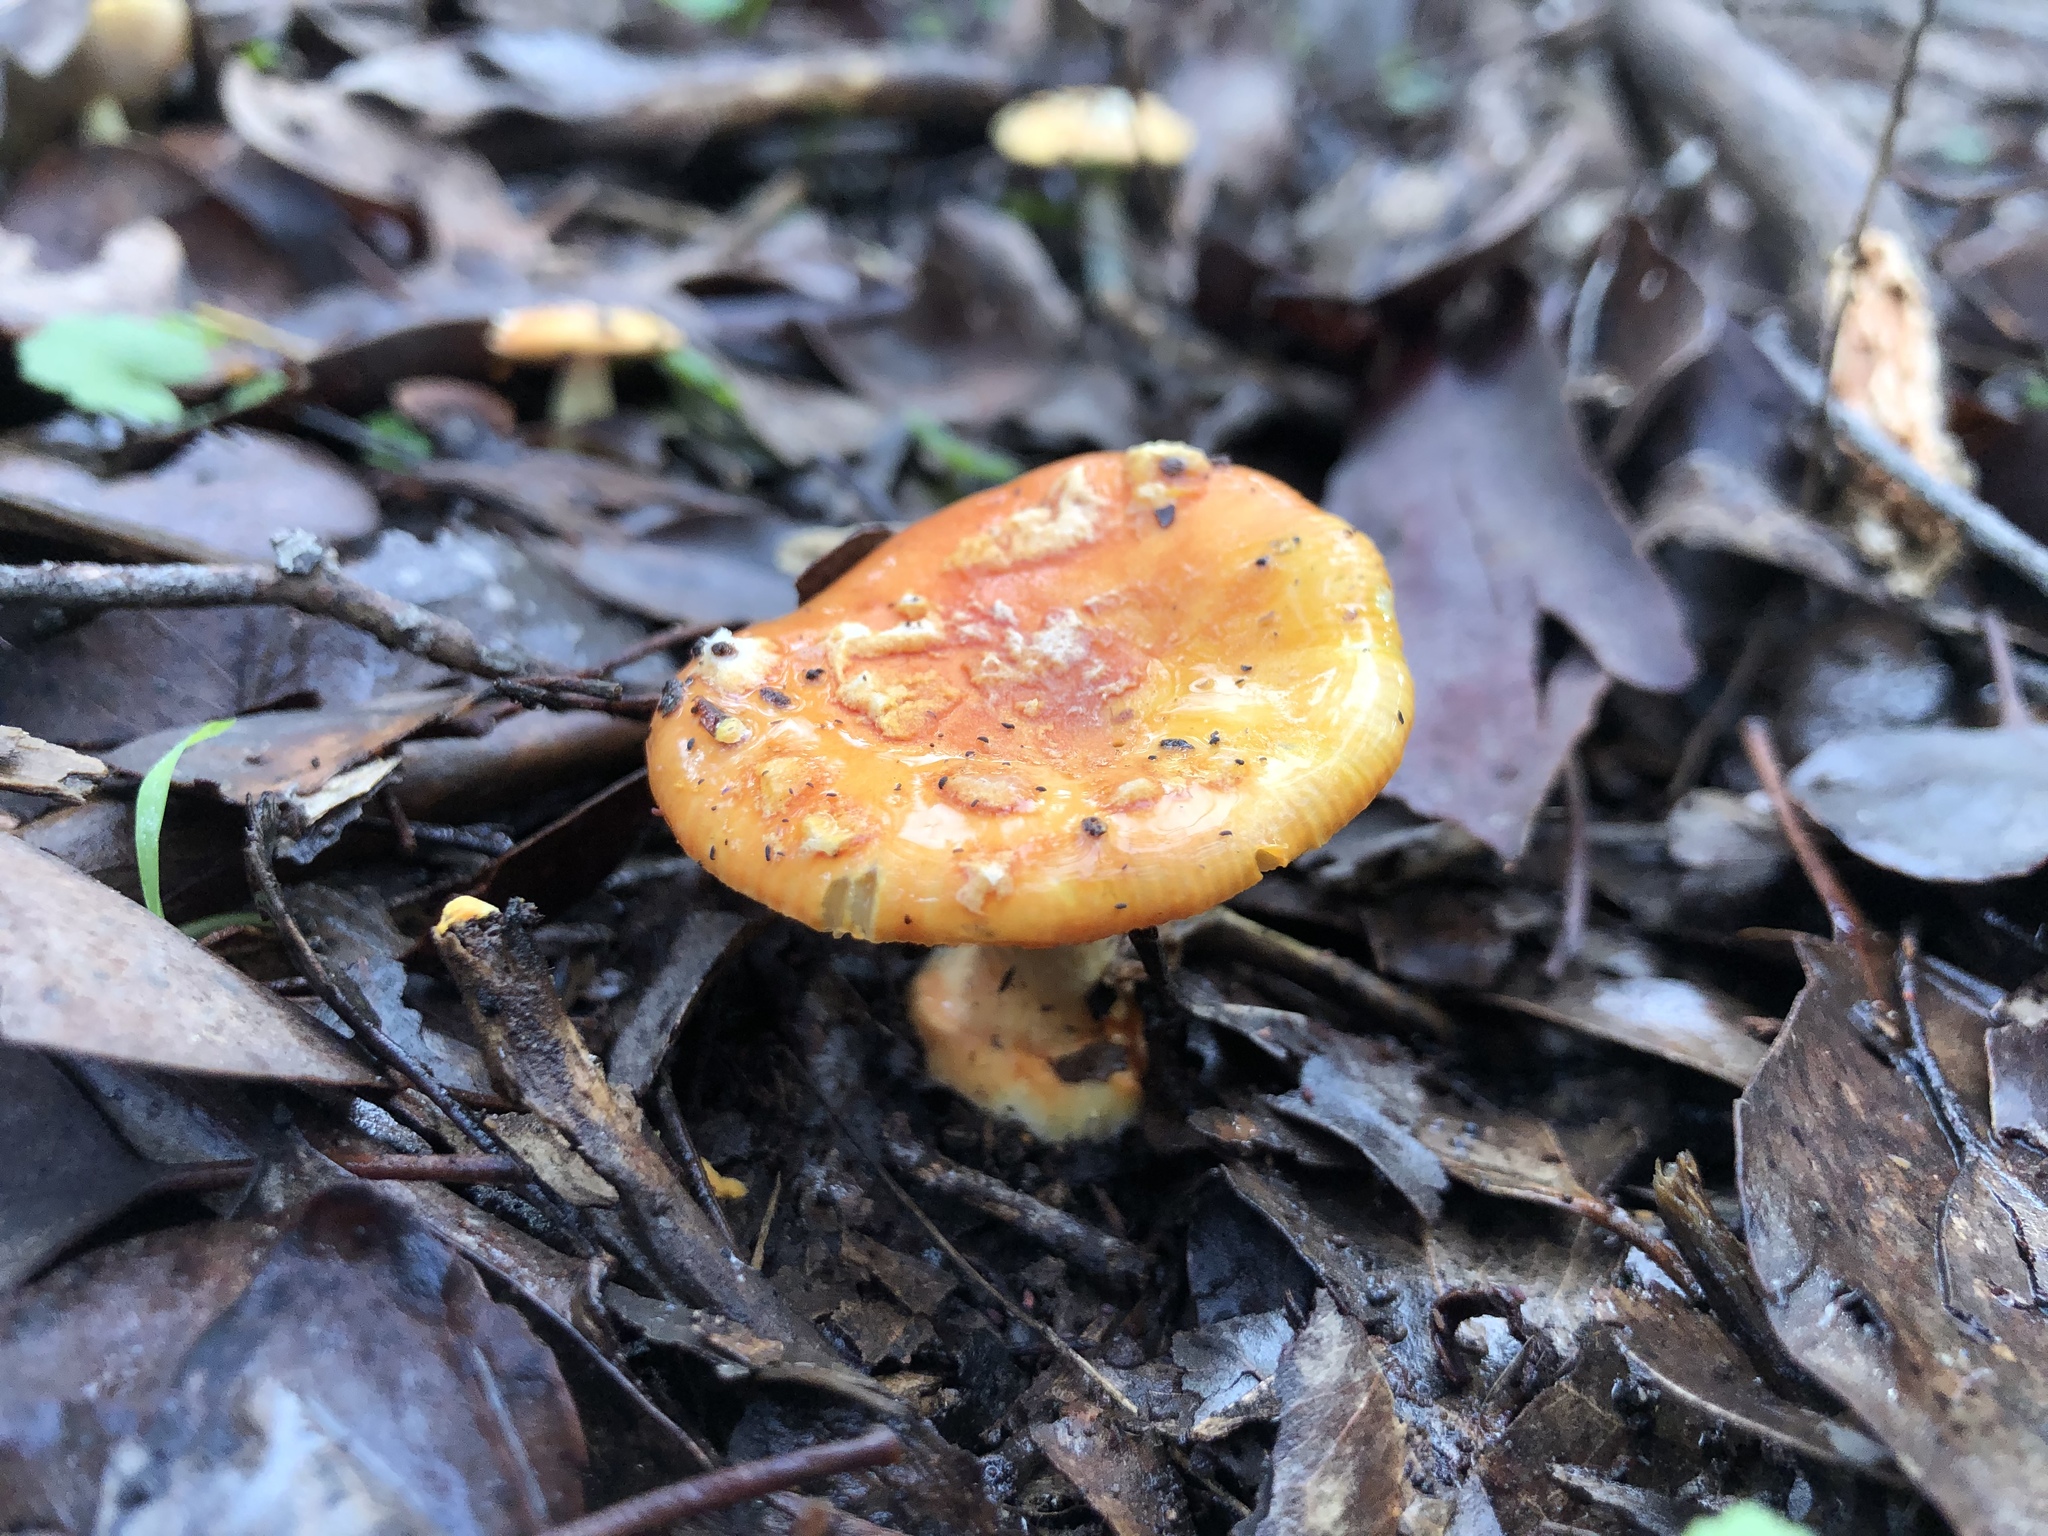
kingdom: Fungi
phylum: Basidiomycota
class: Agaricomycetes
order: Agaricales
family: Amanitaceae
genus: Amanita
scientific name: Amanita xanthocephala
